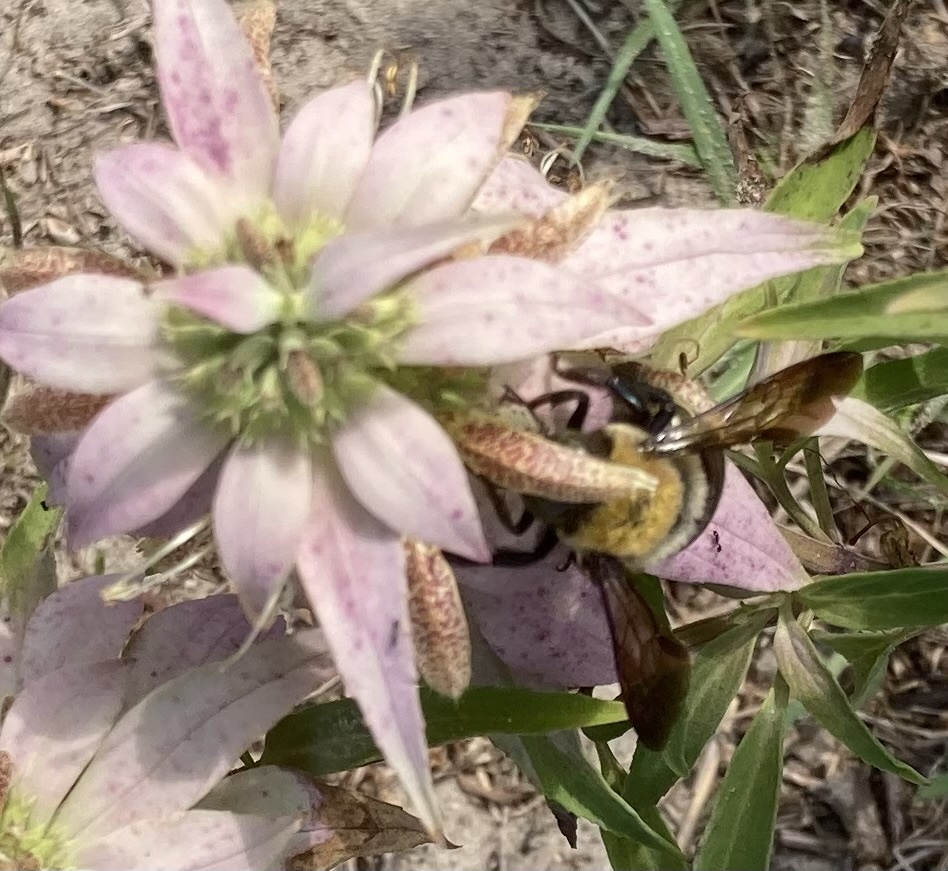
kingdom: Animalia
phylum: Arthropoda
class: Insecta
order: Hymenoptera
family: Apidae
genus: Xylocopa
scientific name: Xylocopa virginica
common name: Carpenter bee
